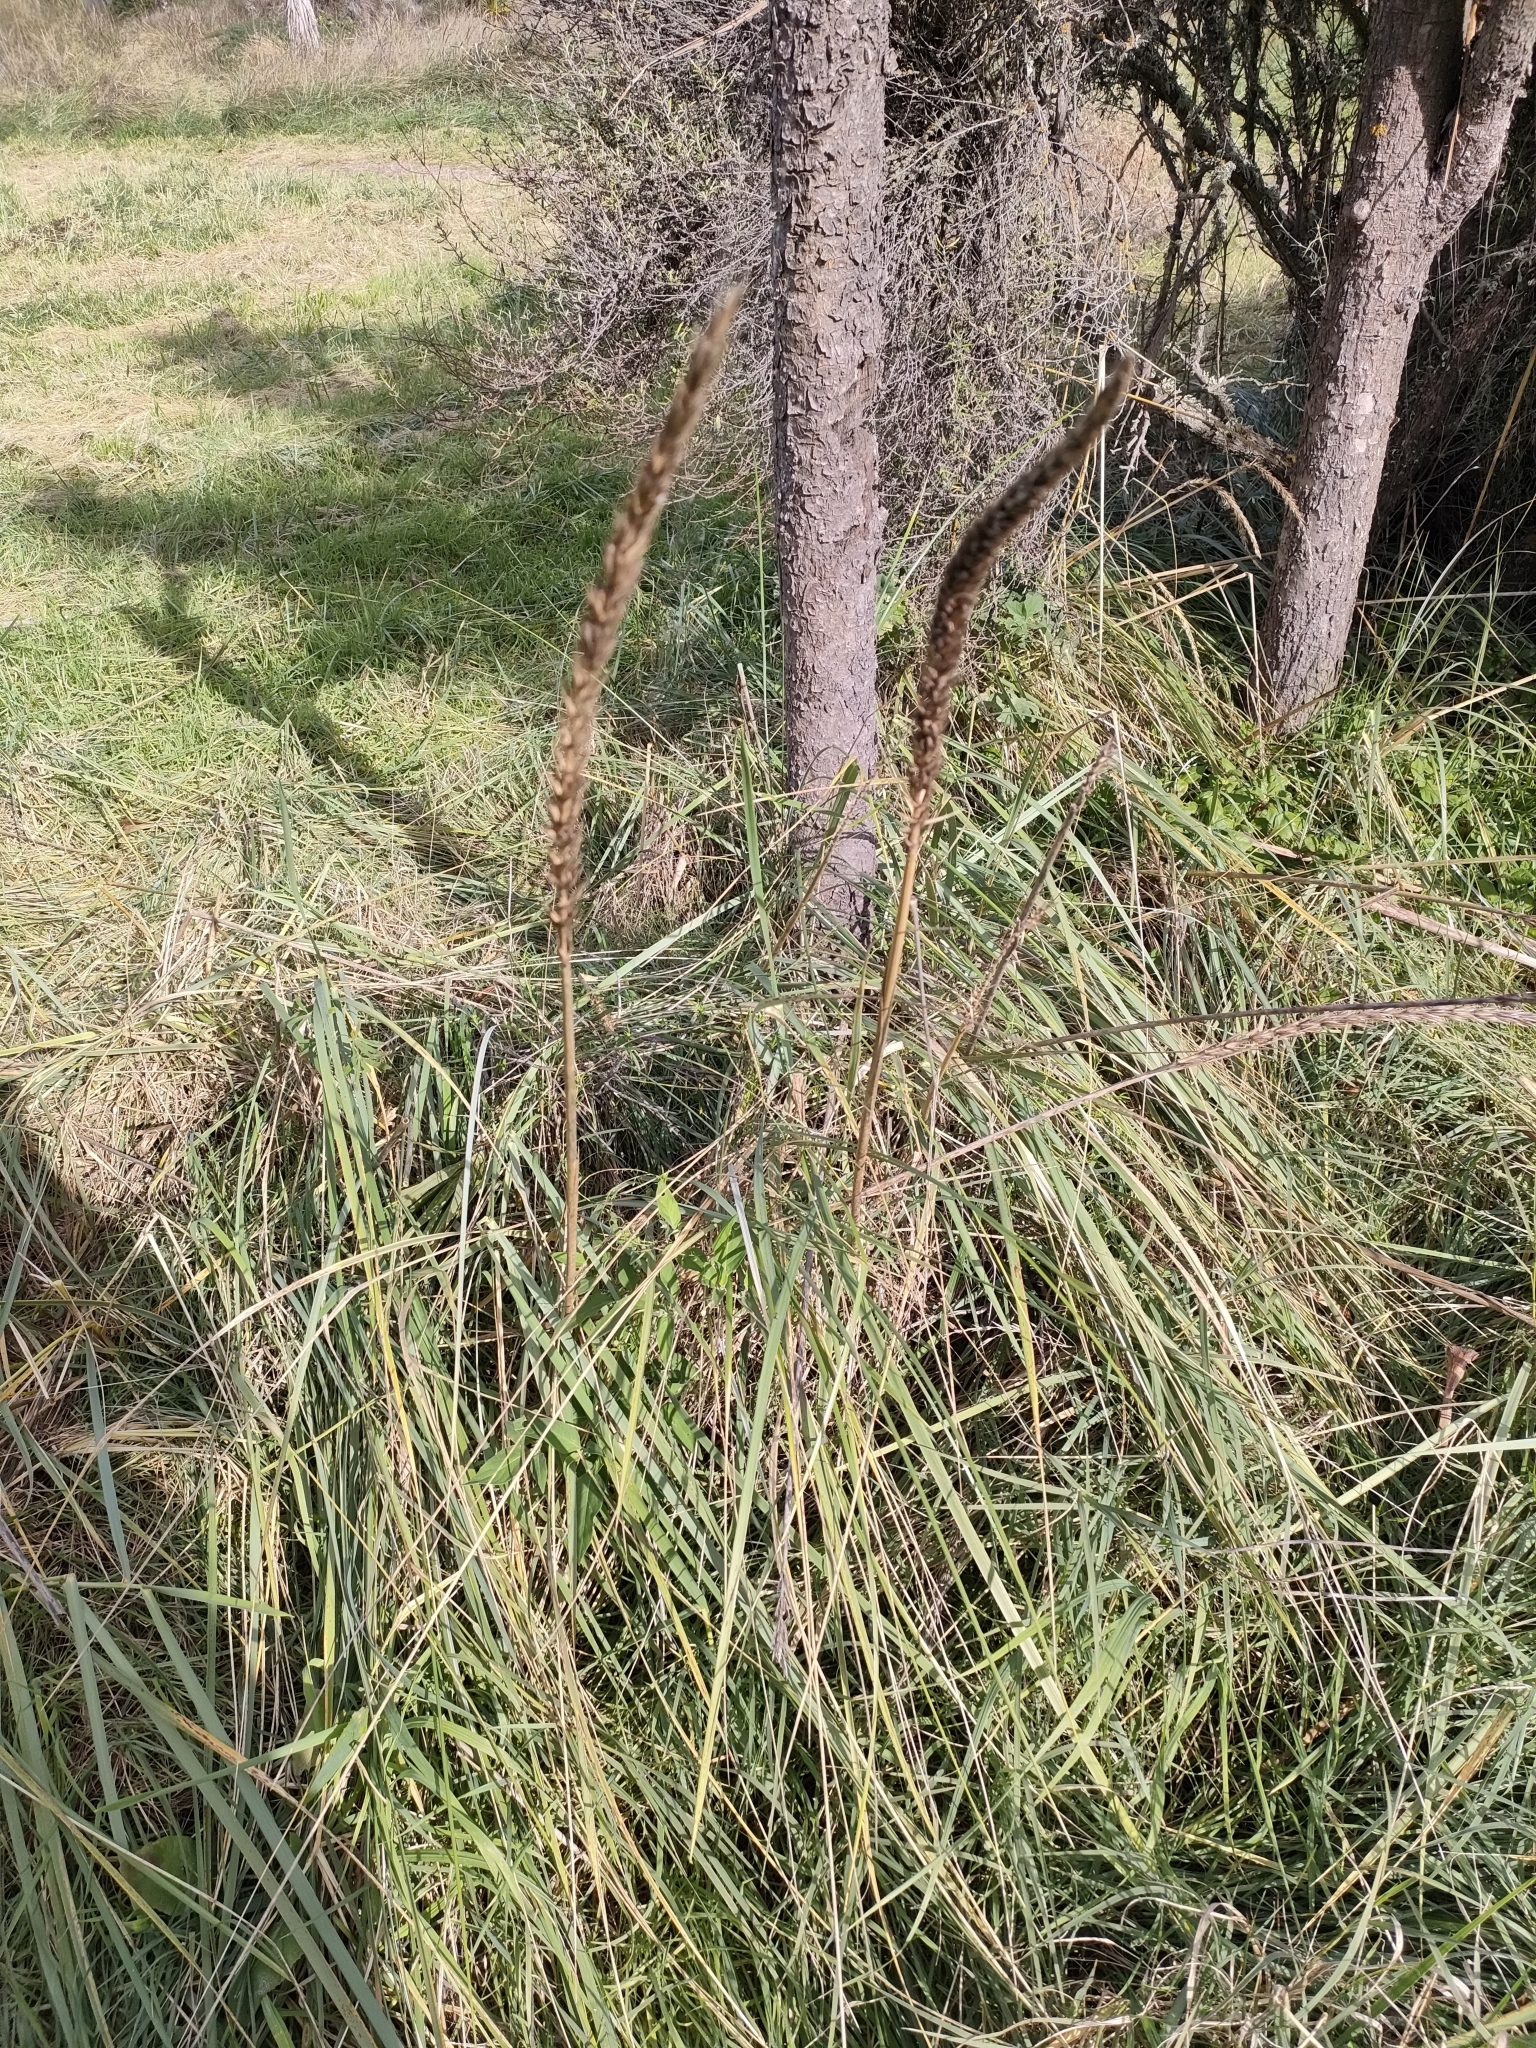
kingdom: Plantae
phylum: Tracheophyta
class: Liliopsida
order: Poales
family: Poaceae
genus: Leymus
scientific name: Leymus racemosus
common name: Mammoth wildrye
